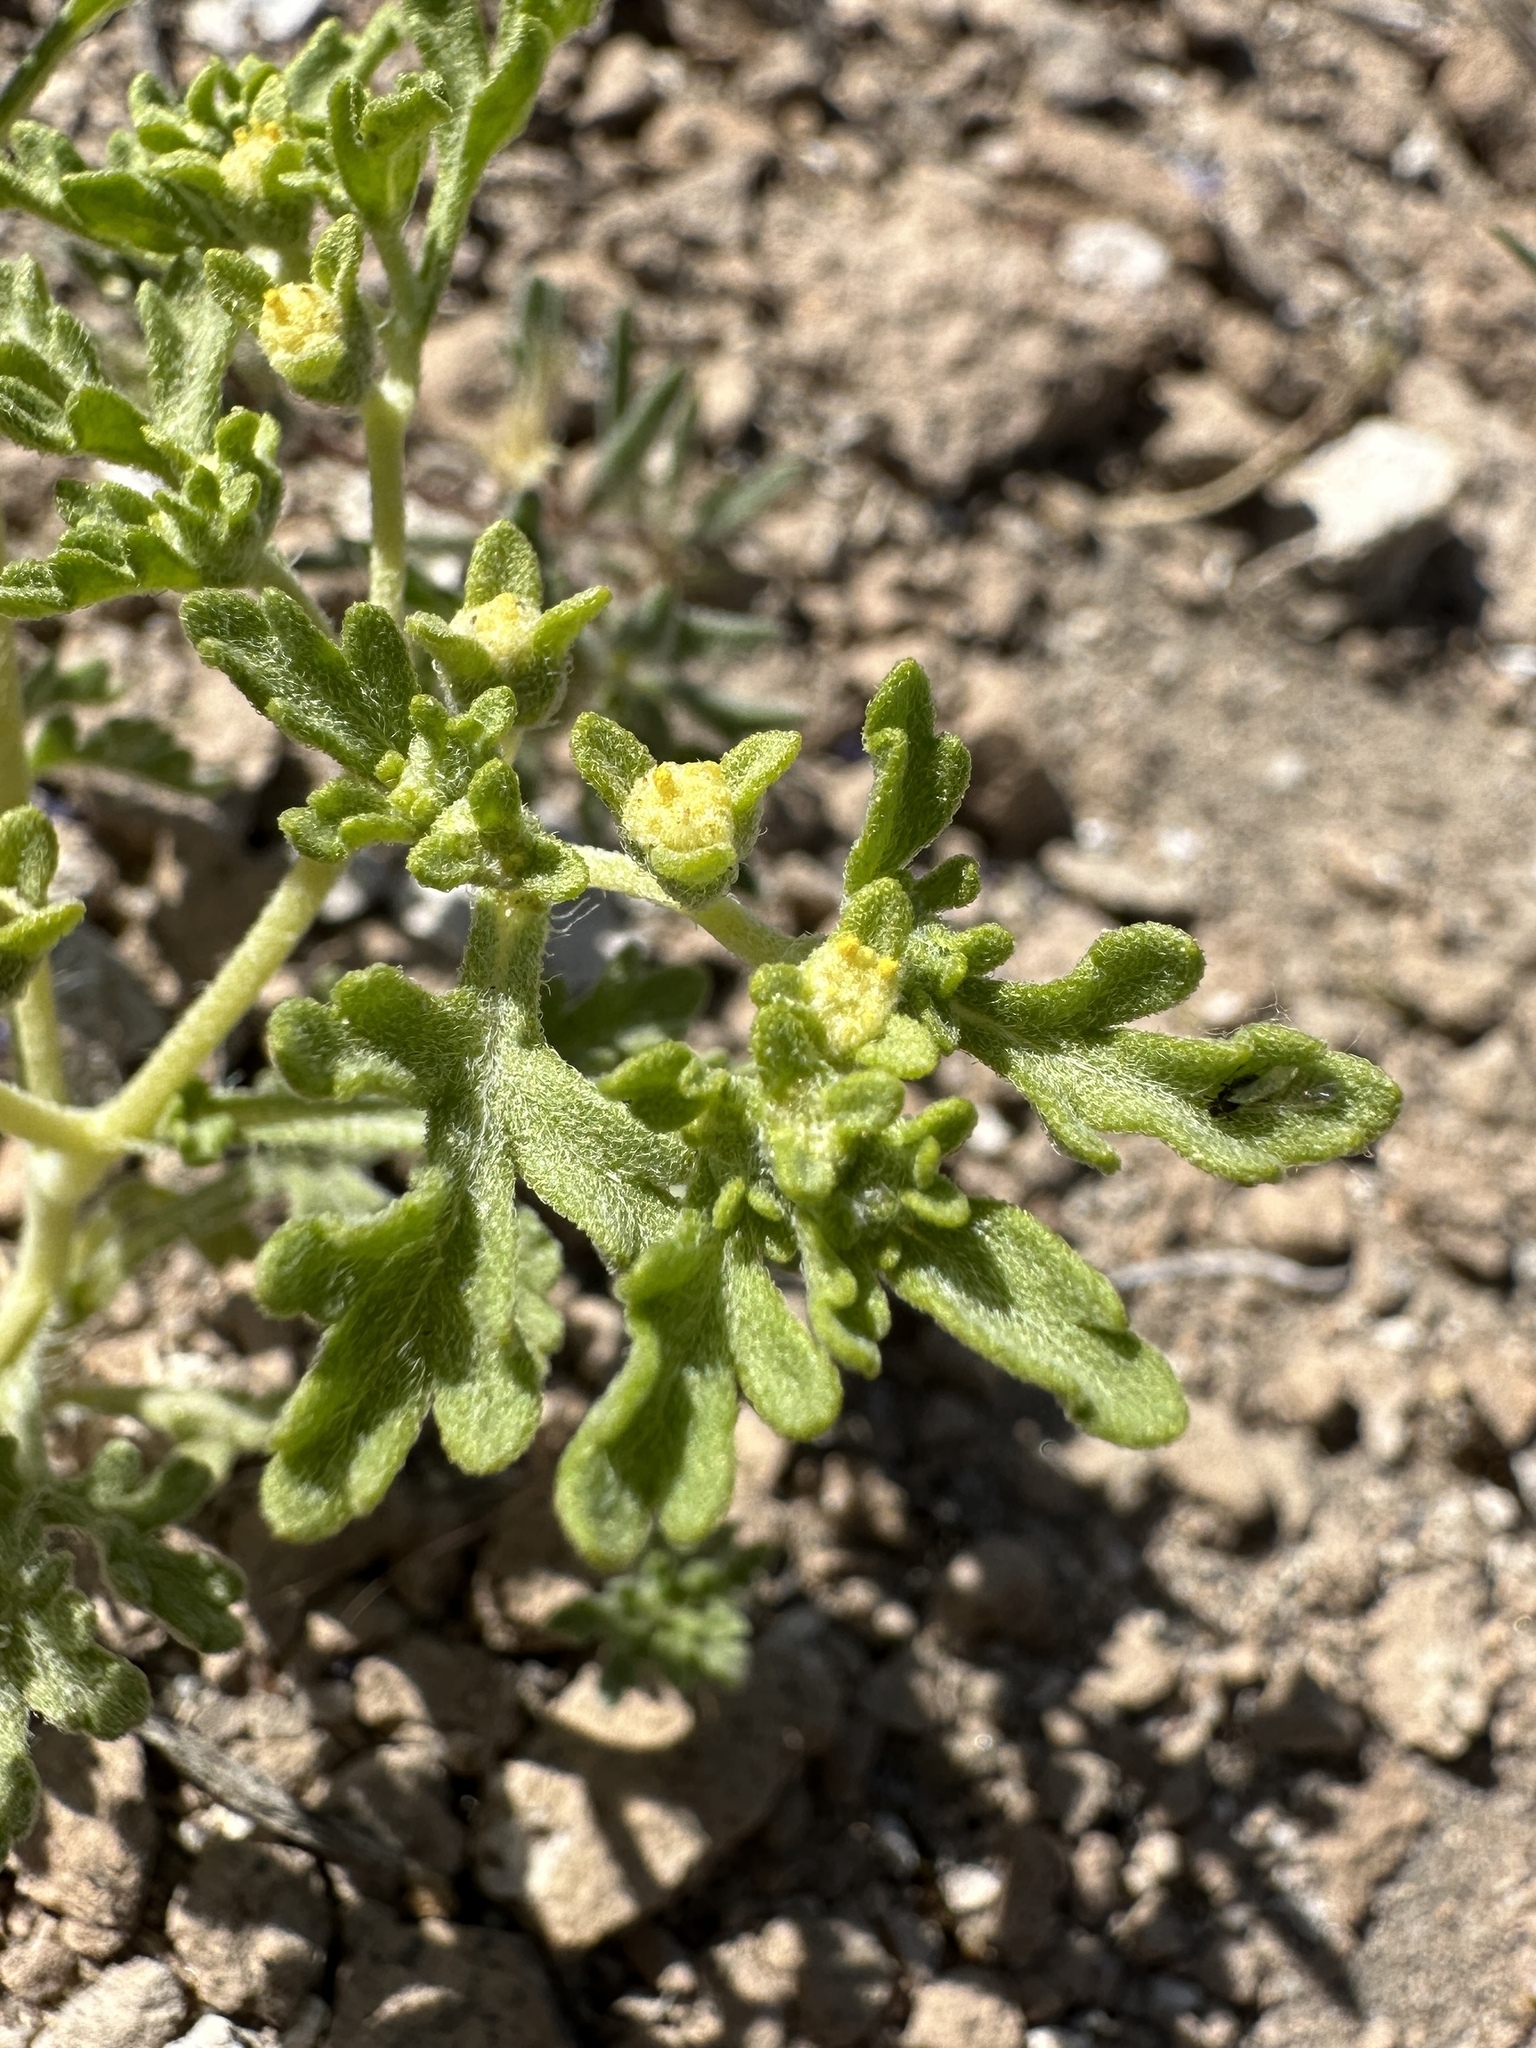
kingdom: Plantae
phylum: Tracheophyta
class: Magnoliopsida
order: Asterales
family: Asteraceae
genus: Euphrosyne
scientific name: Euphrosyne nevadensis
